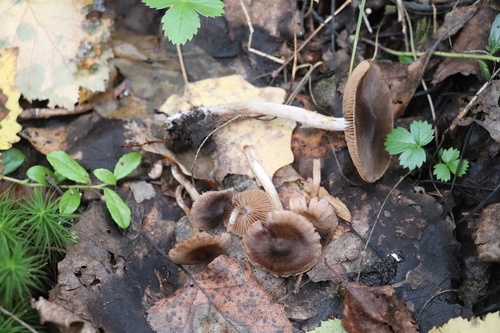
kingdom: Fungi
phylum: Basidiomycota
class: Agaricomycetes
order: Agaricales
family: Cortinariaceae
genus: Cortinarius
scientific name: Cortinarius
